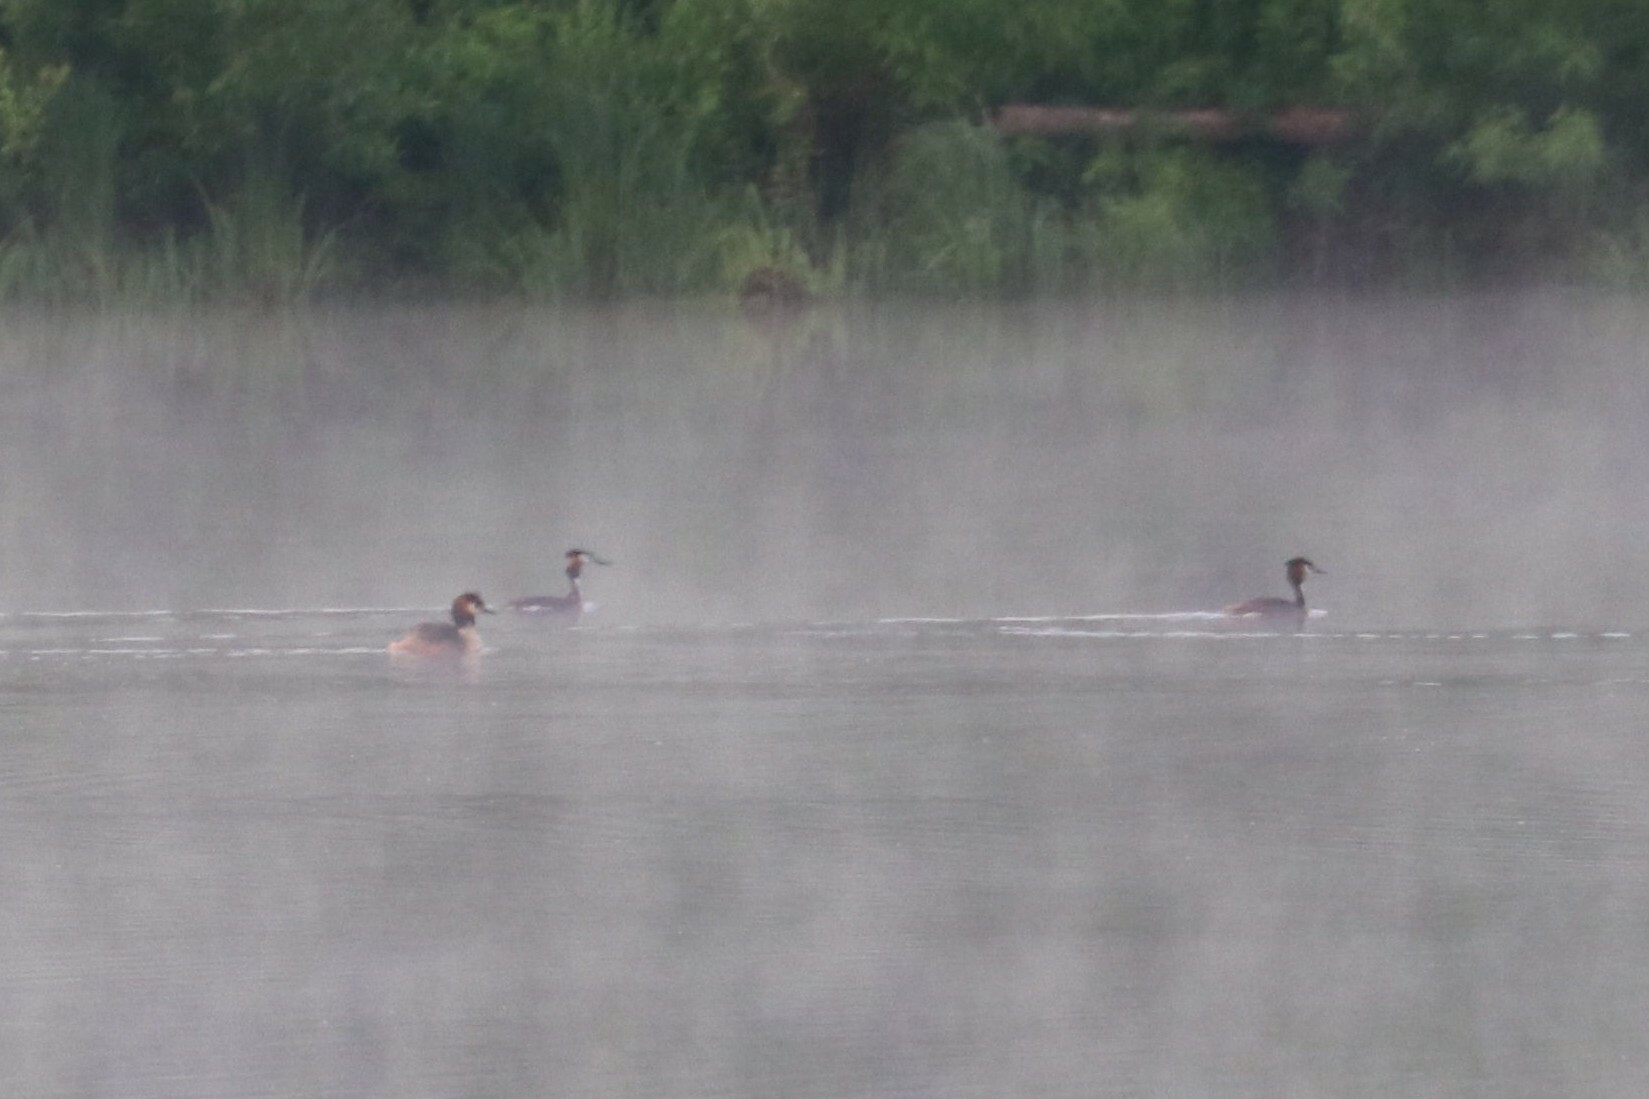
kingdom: Animalia
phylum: Chordata
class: Aves
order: Podicipediformes
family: Podicipedidae
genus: Podiceps
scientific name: Podiceps cristatus
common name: Great crested grebe
